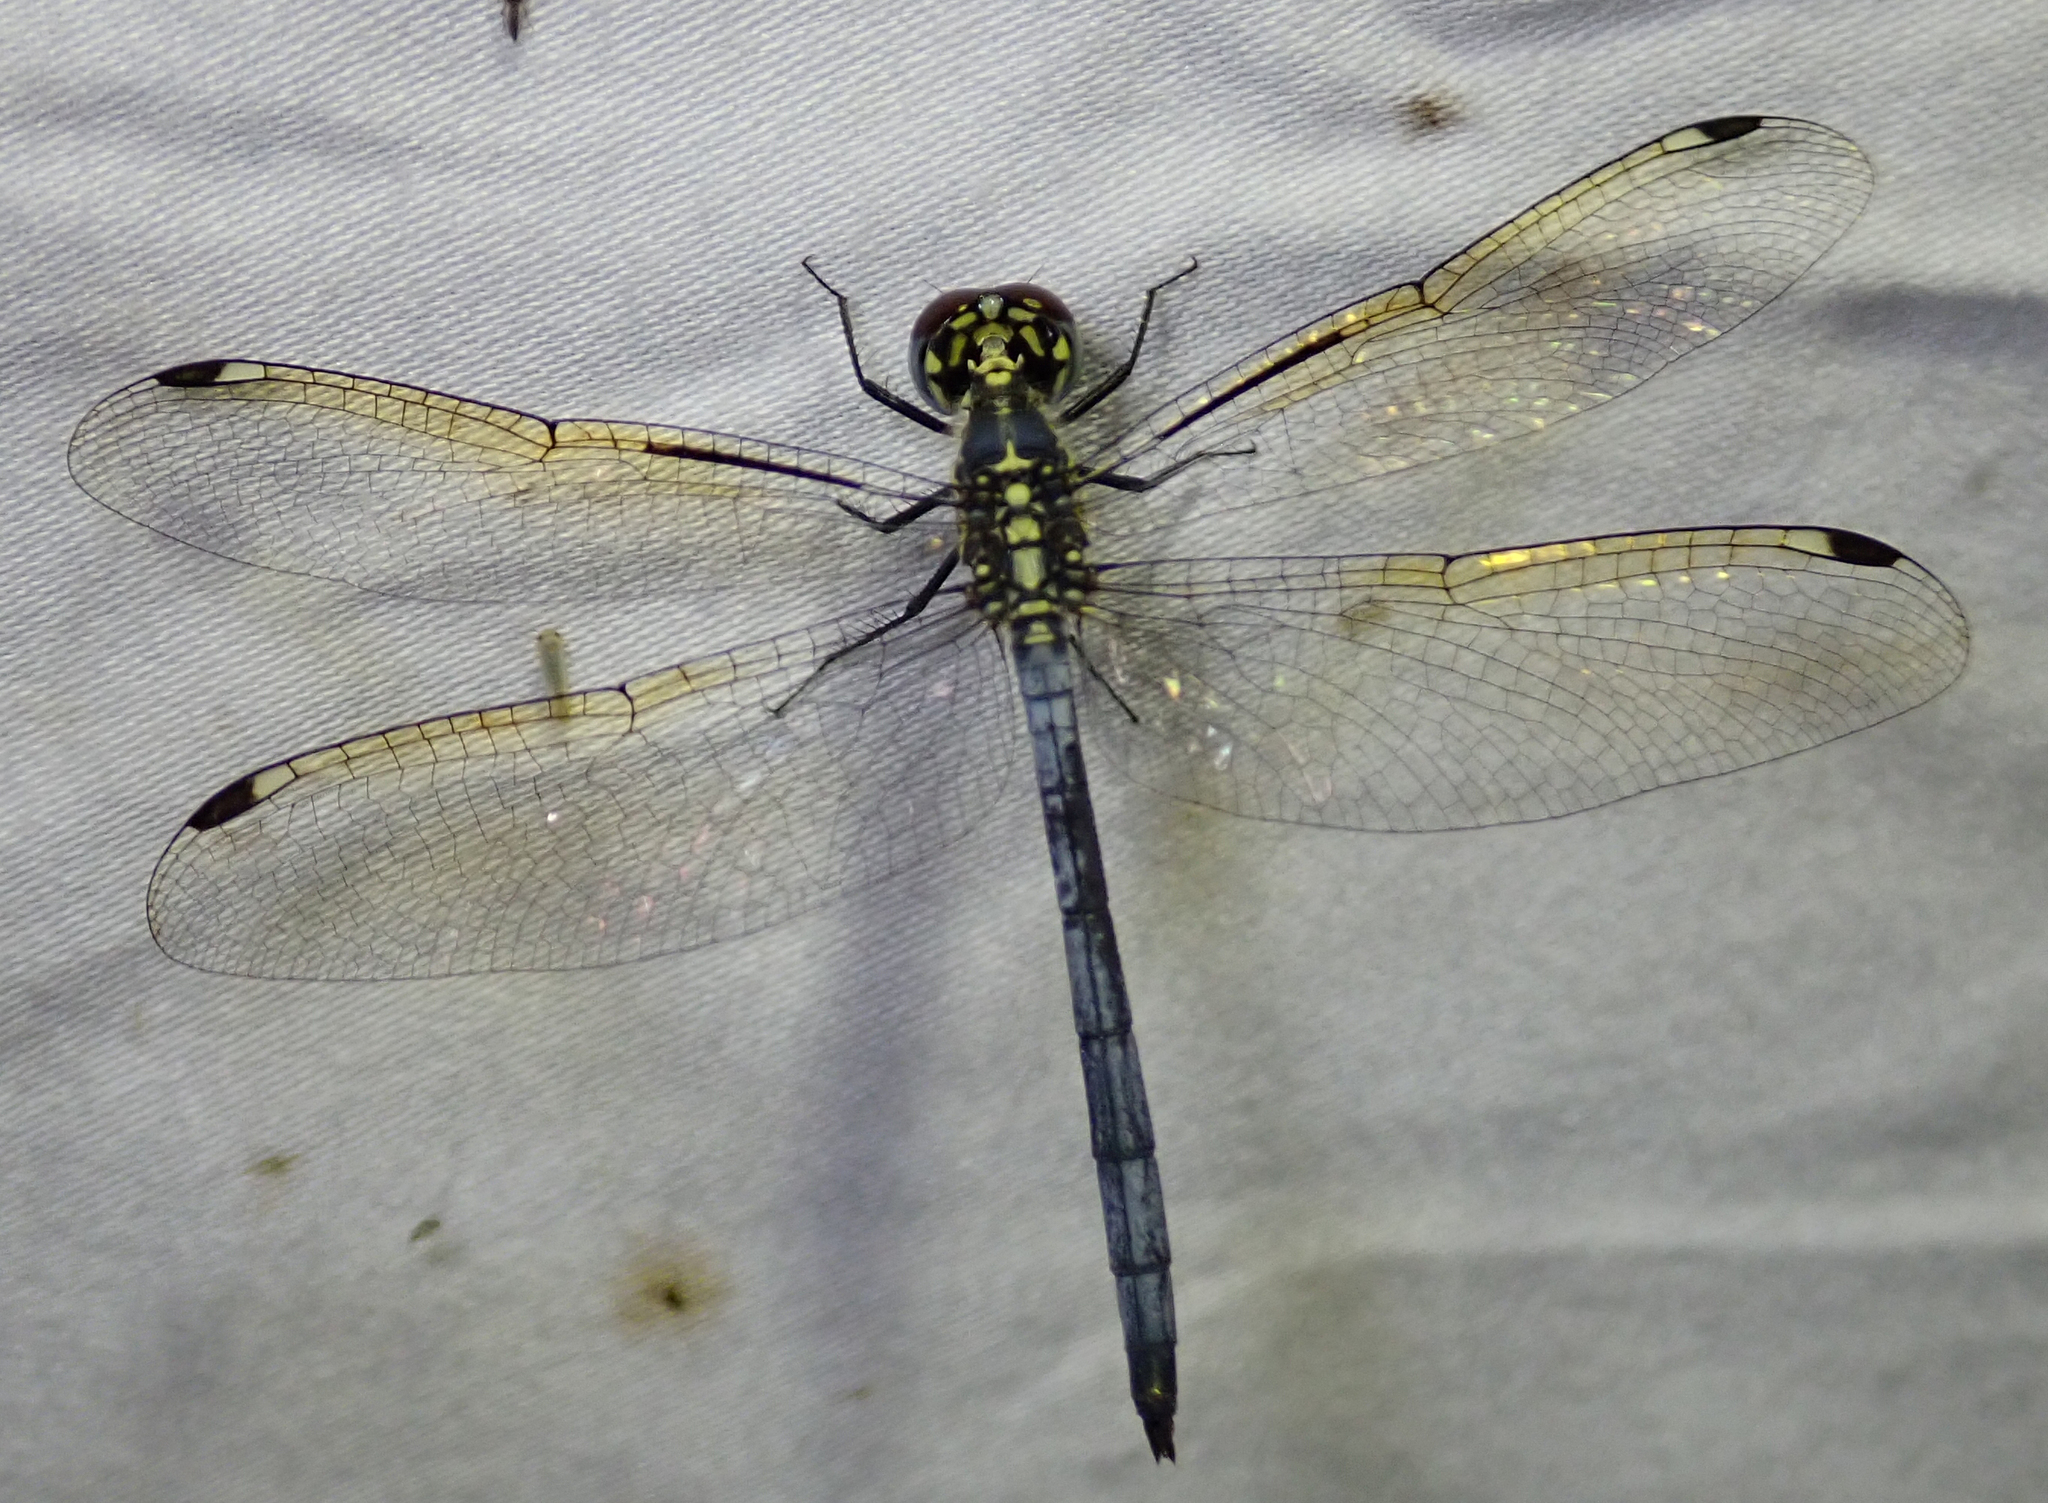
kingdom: Animalia
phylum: Arthropoda
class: Insecta
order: Odonata
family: Libellulidae
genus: Hemistigma
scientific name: Hemistigma albipunctum
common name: African pied-spot
